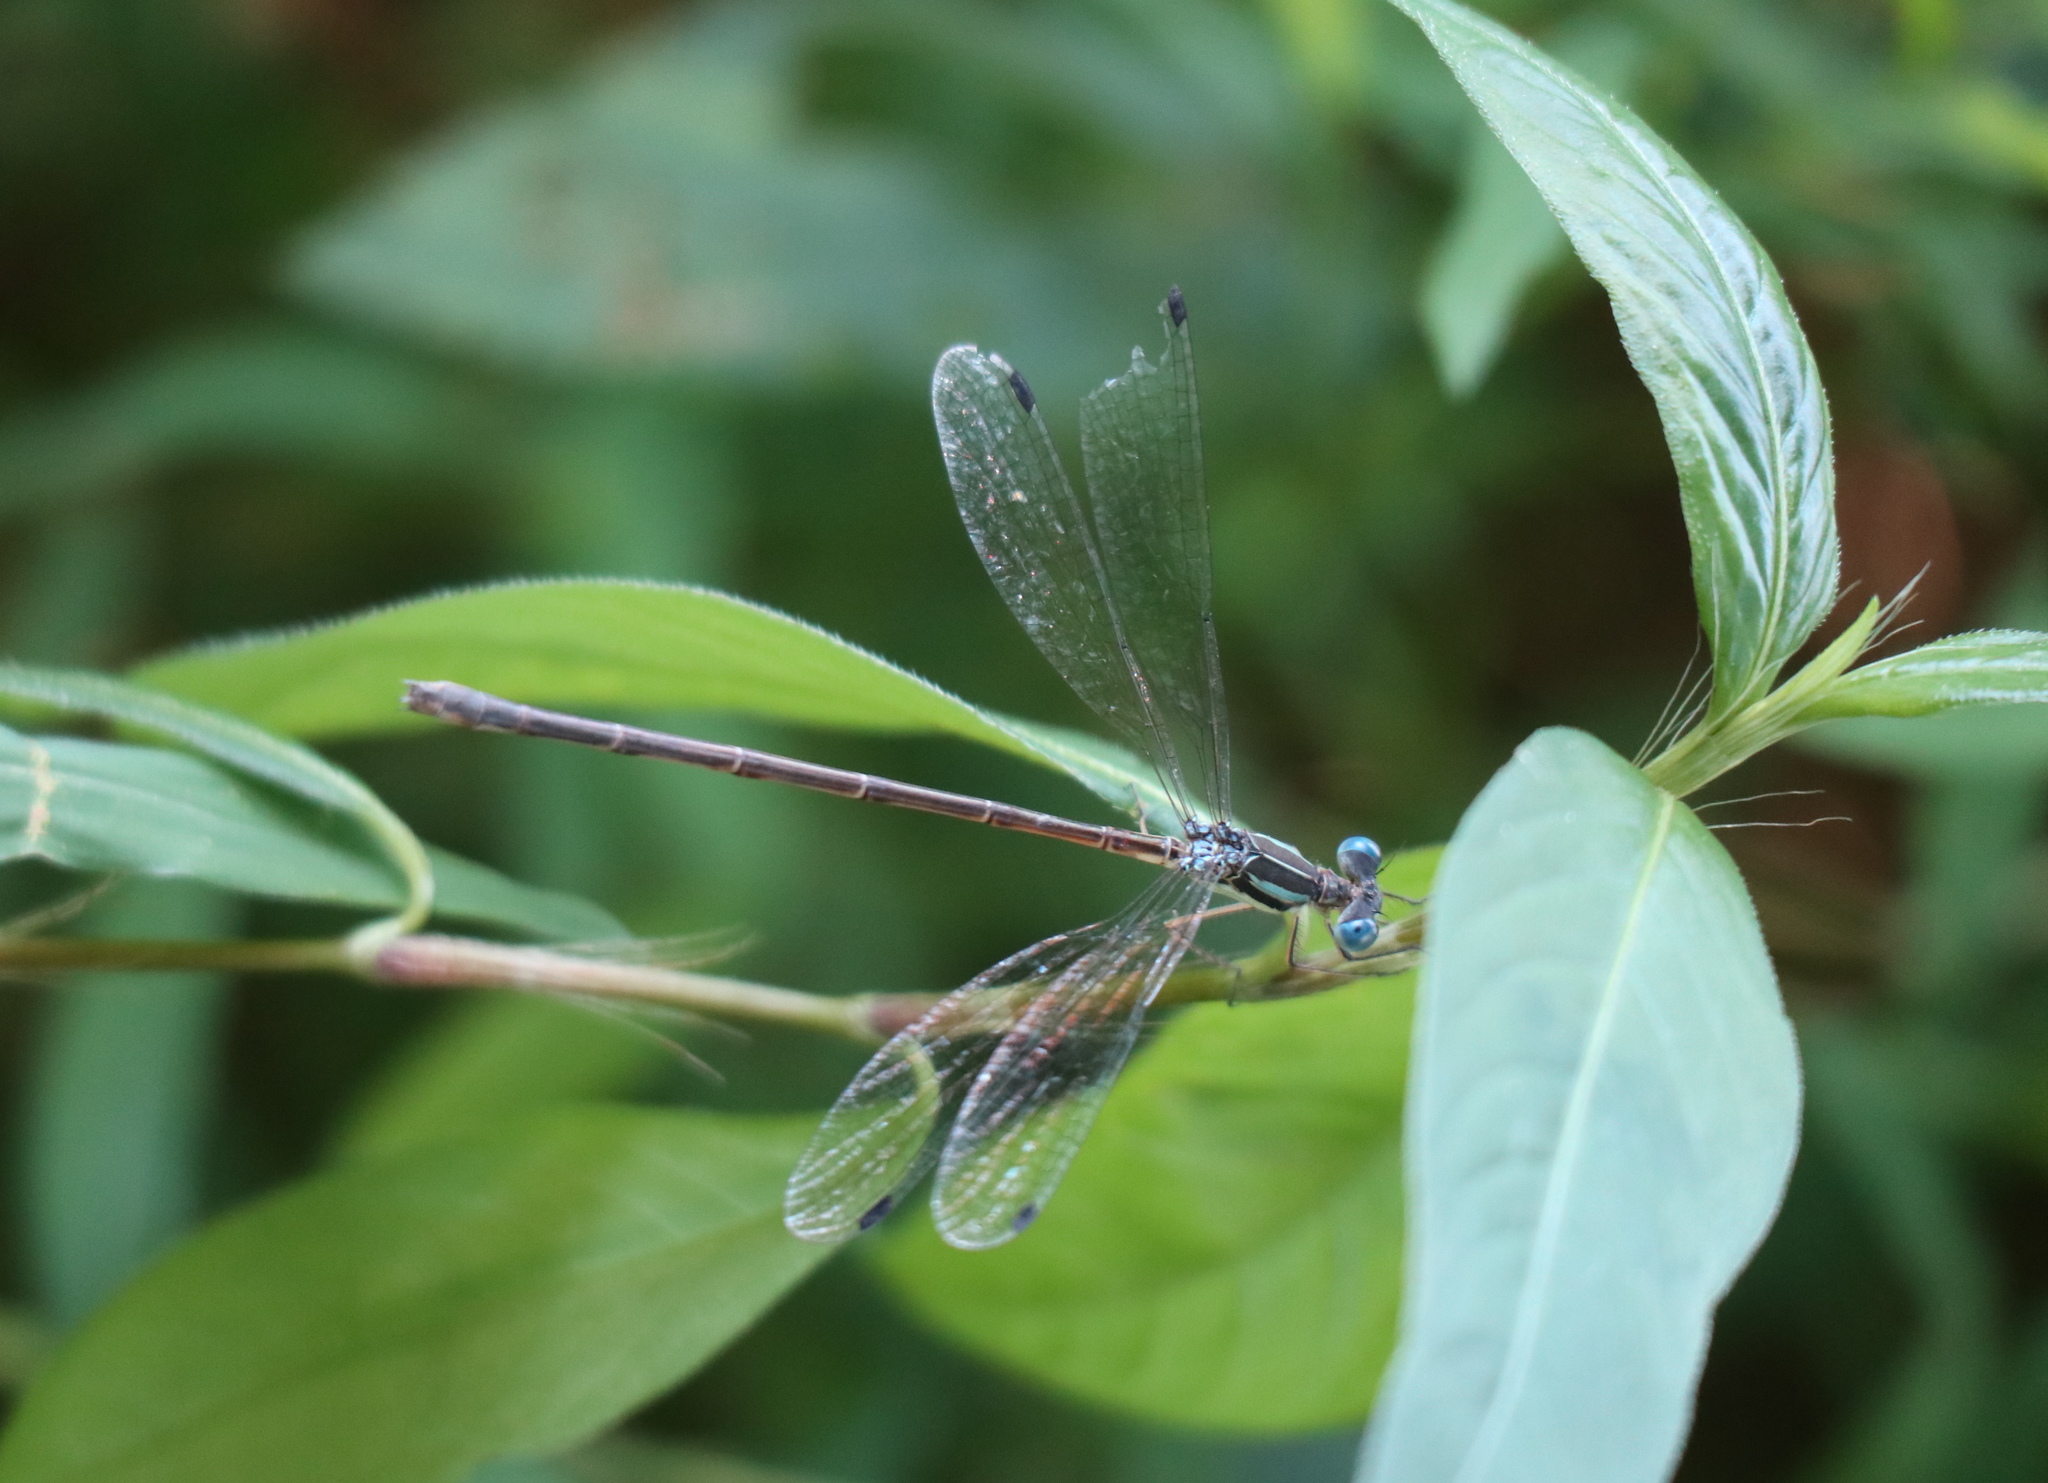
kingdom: Animalia
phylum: Arthropoda
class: Insecta
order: Odonata
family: Lestidae
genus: Lestes
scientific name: Lestes
